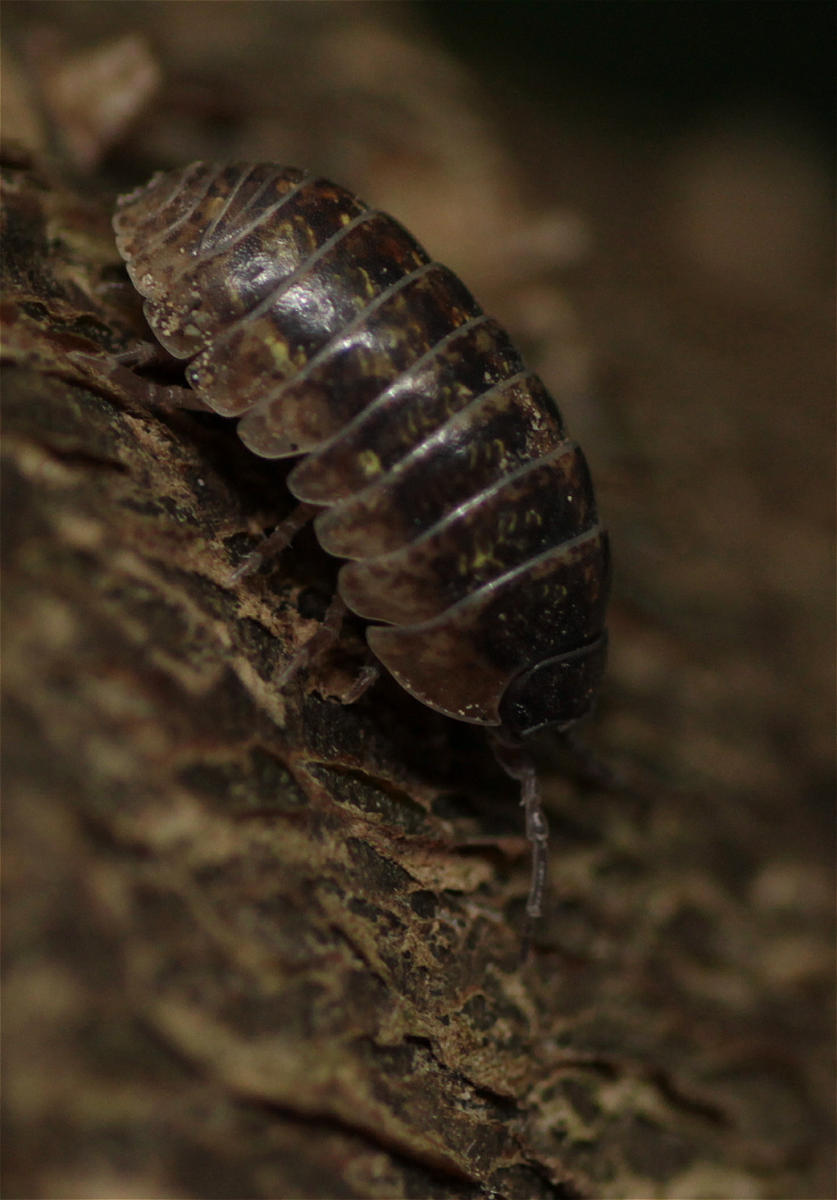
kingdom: Animalia
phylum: Arthropoda
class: Malacostraca
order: Isopoda
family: Armadillidiidae
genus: Armadillidium
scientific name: Armadillidium vulgare
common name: Common pill woodlouse
